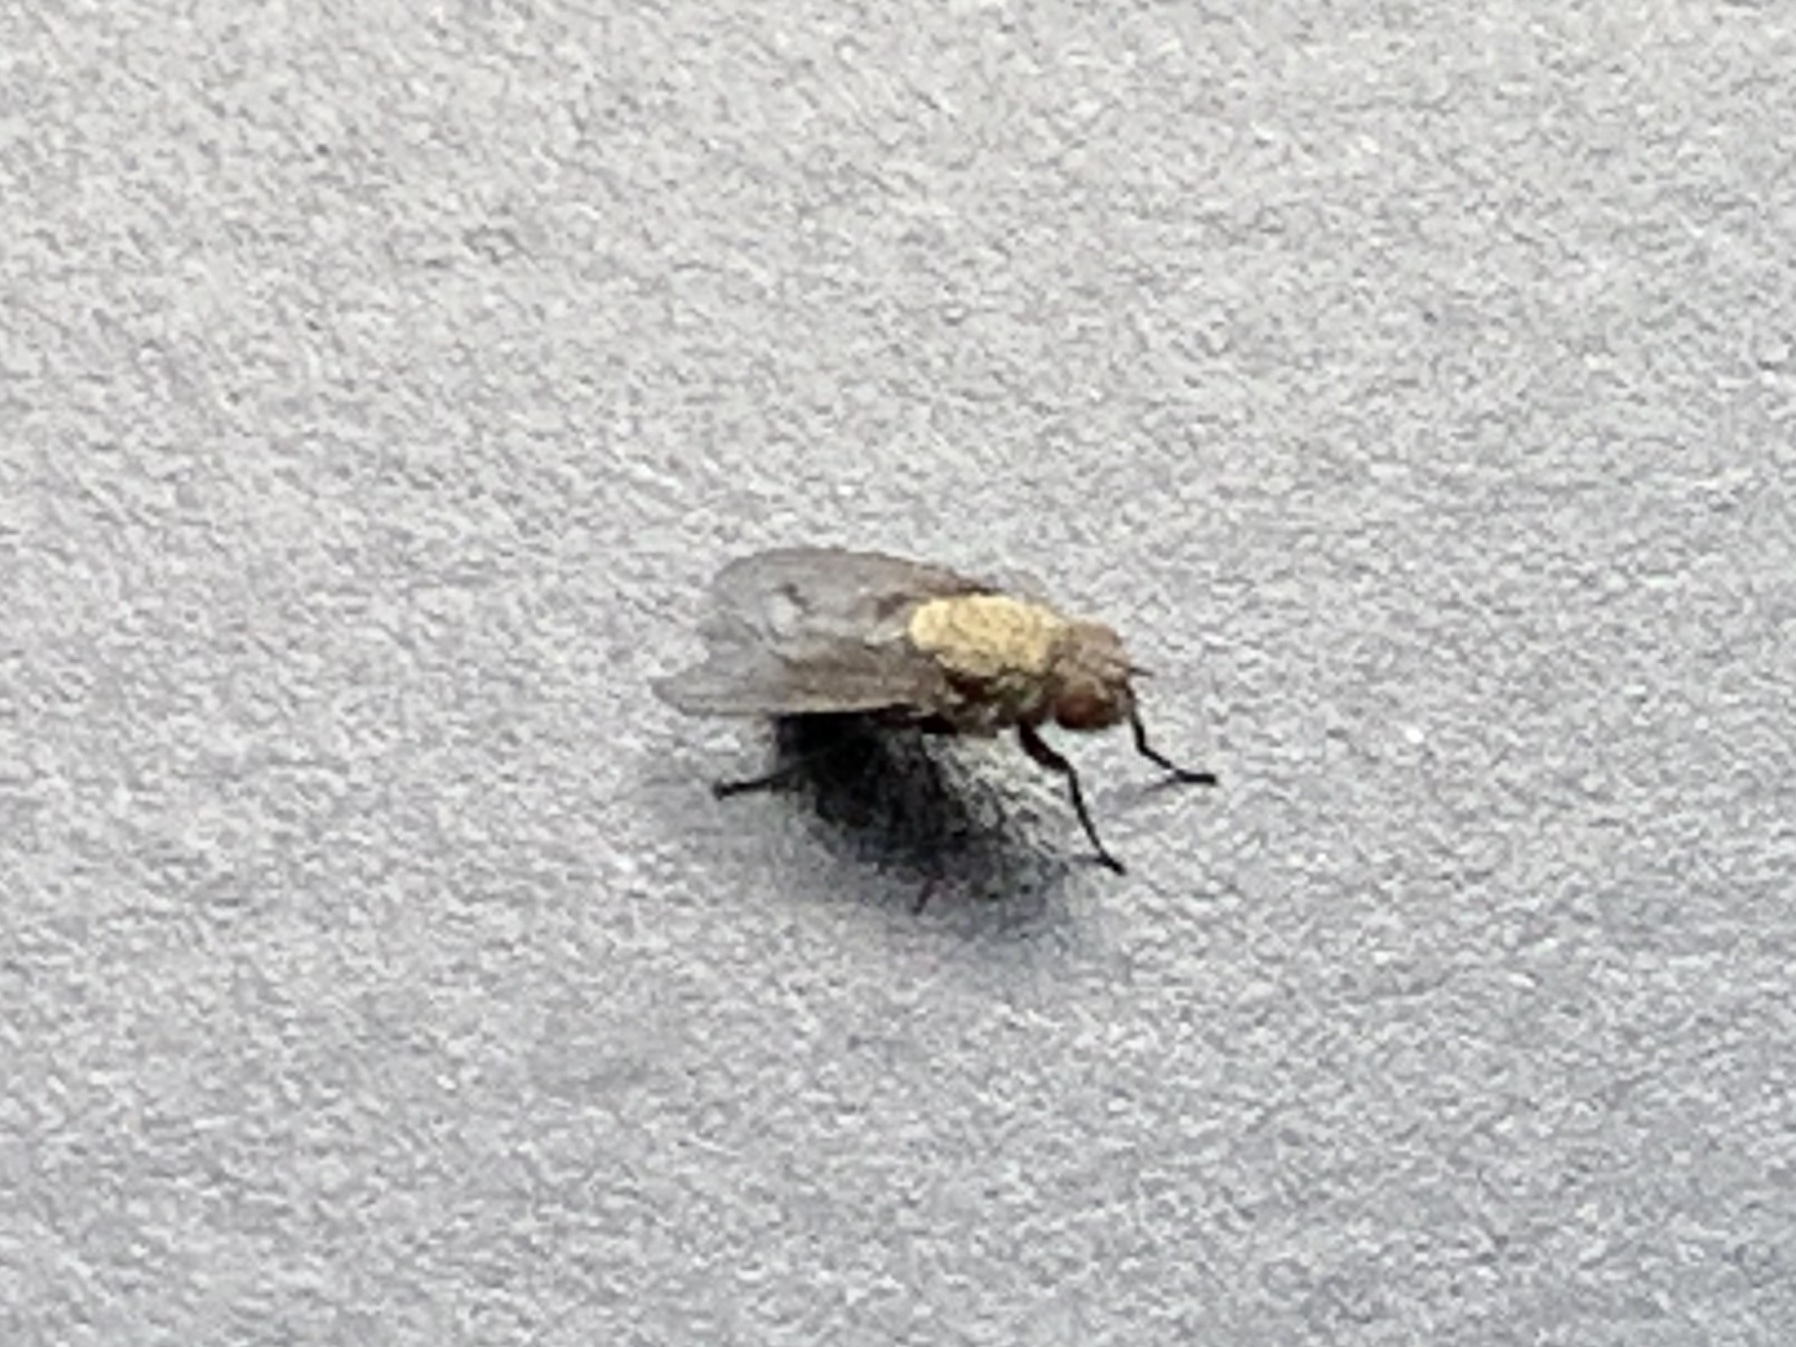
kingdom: Animalia
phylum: Arthropoda
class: Insecta
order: Diptera
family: Polleniidae
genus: Pollenia
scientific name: Pollenia
